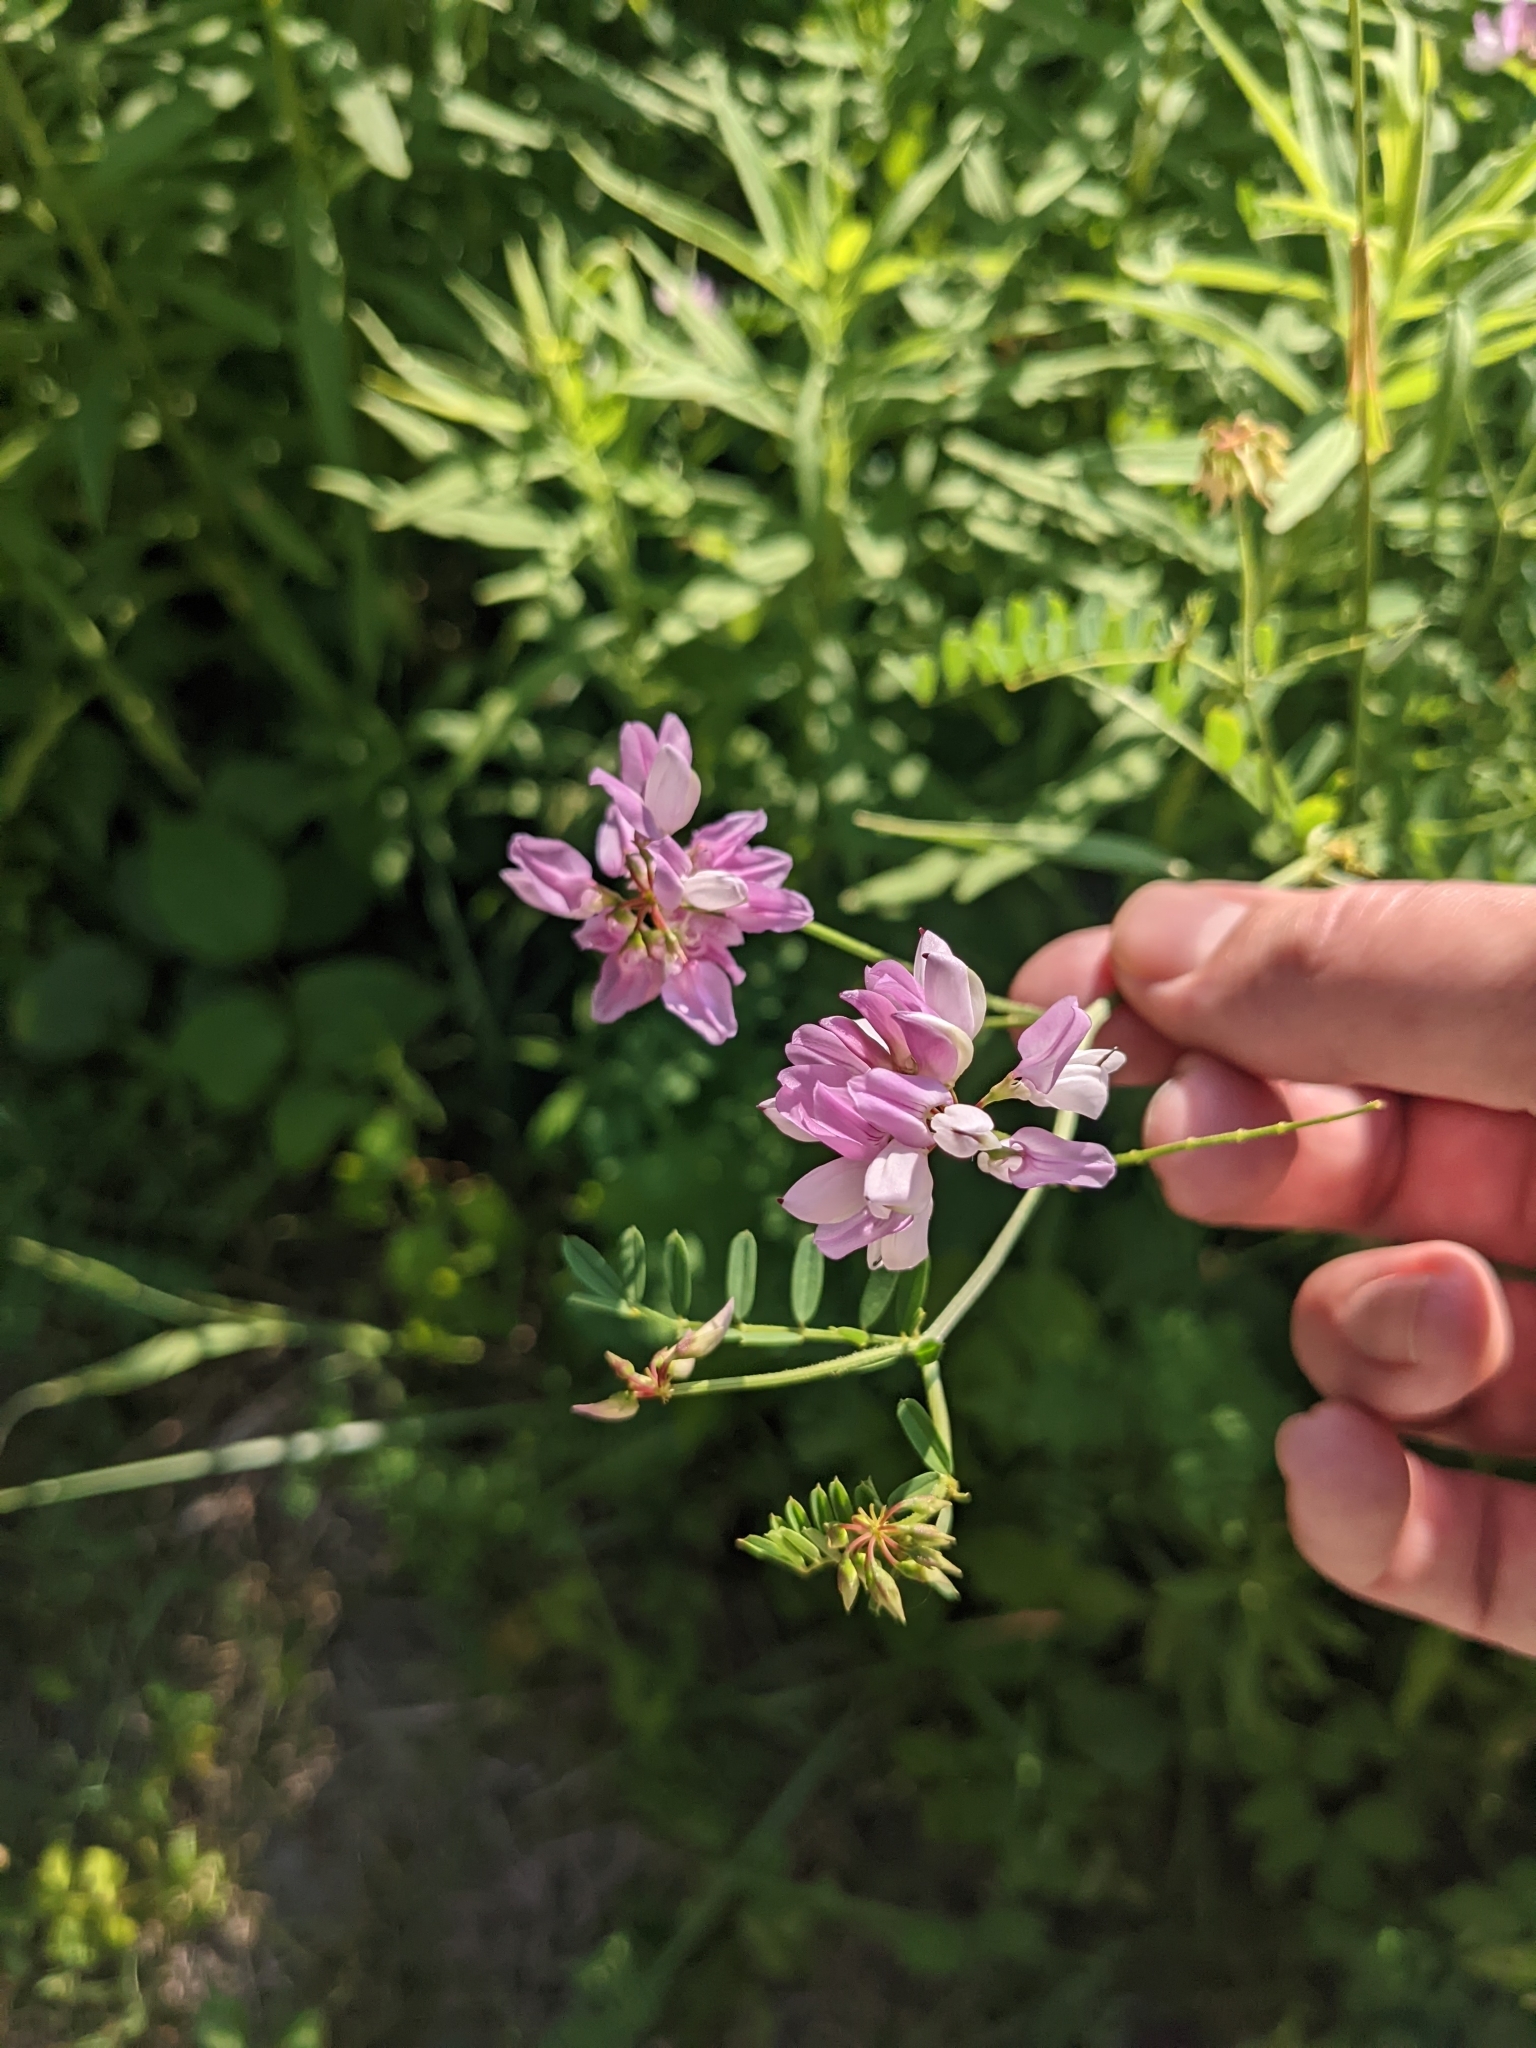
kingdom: Plantae
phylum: Tracheophyta
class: Magnoliopsida
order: Fabales
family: Fabaceae
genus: Coronilla
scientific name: Coronilla varia
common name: Crownvetch
